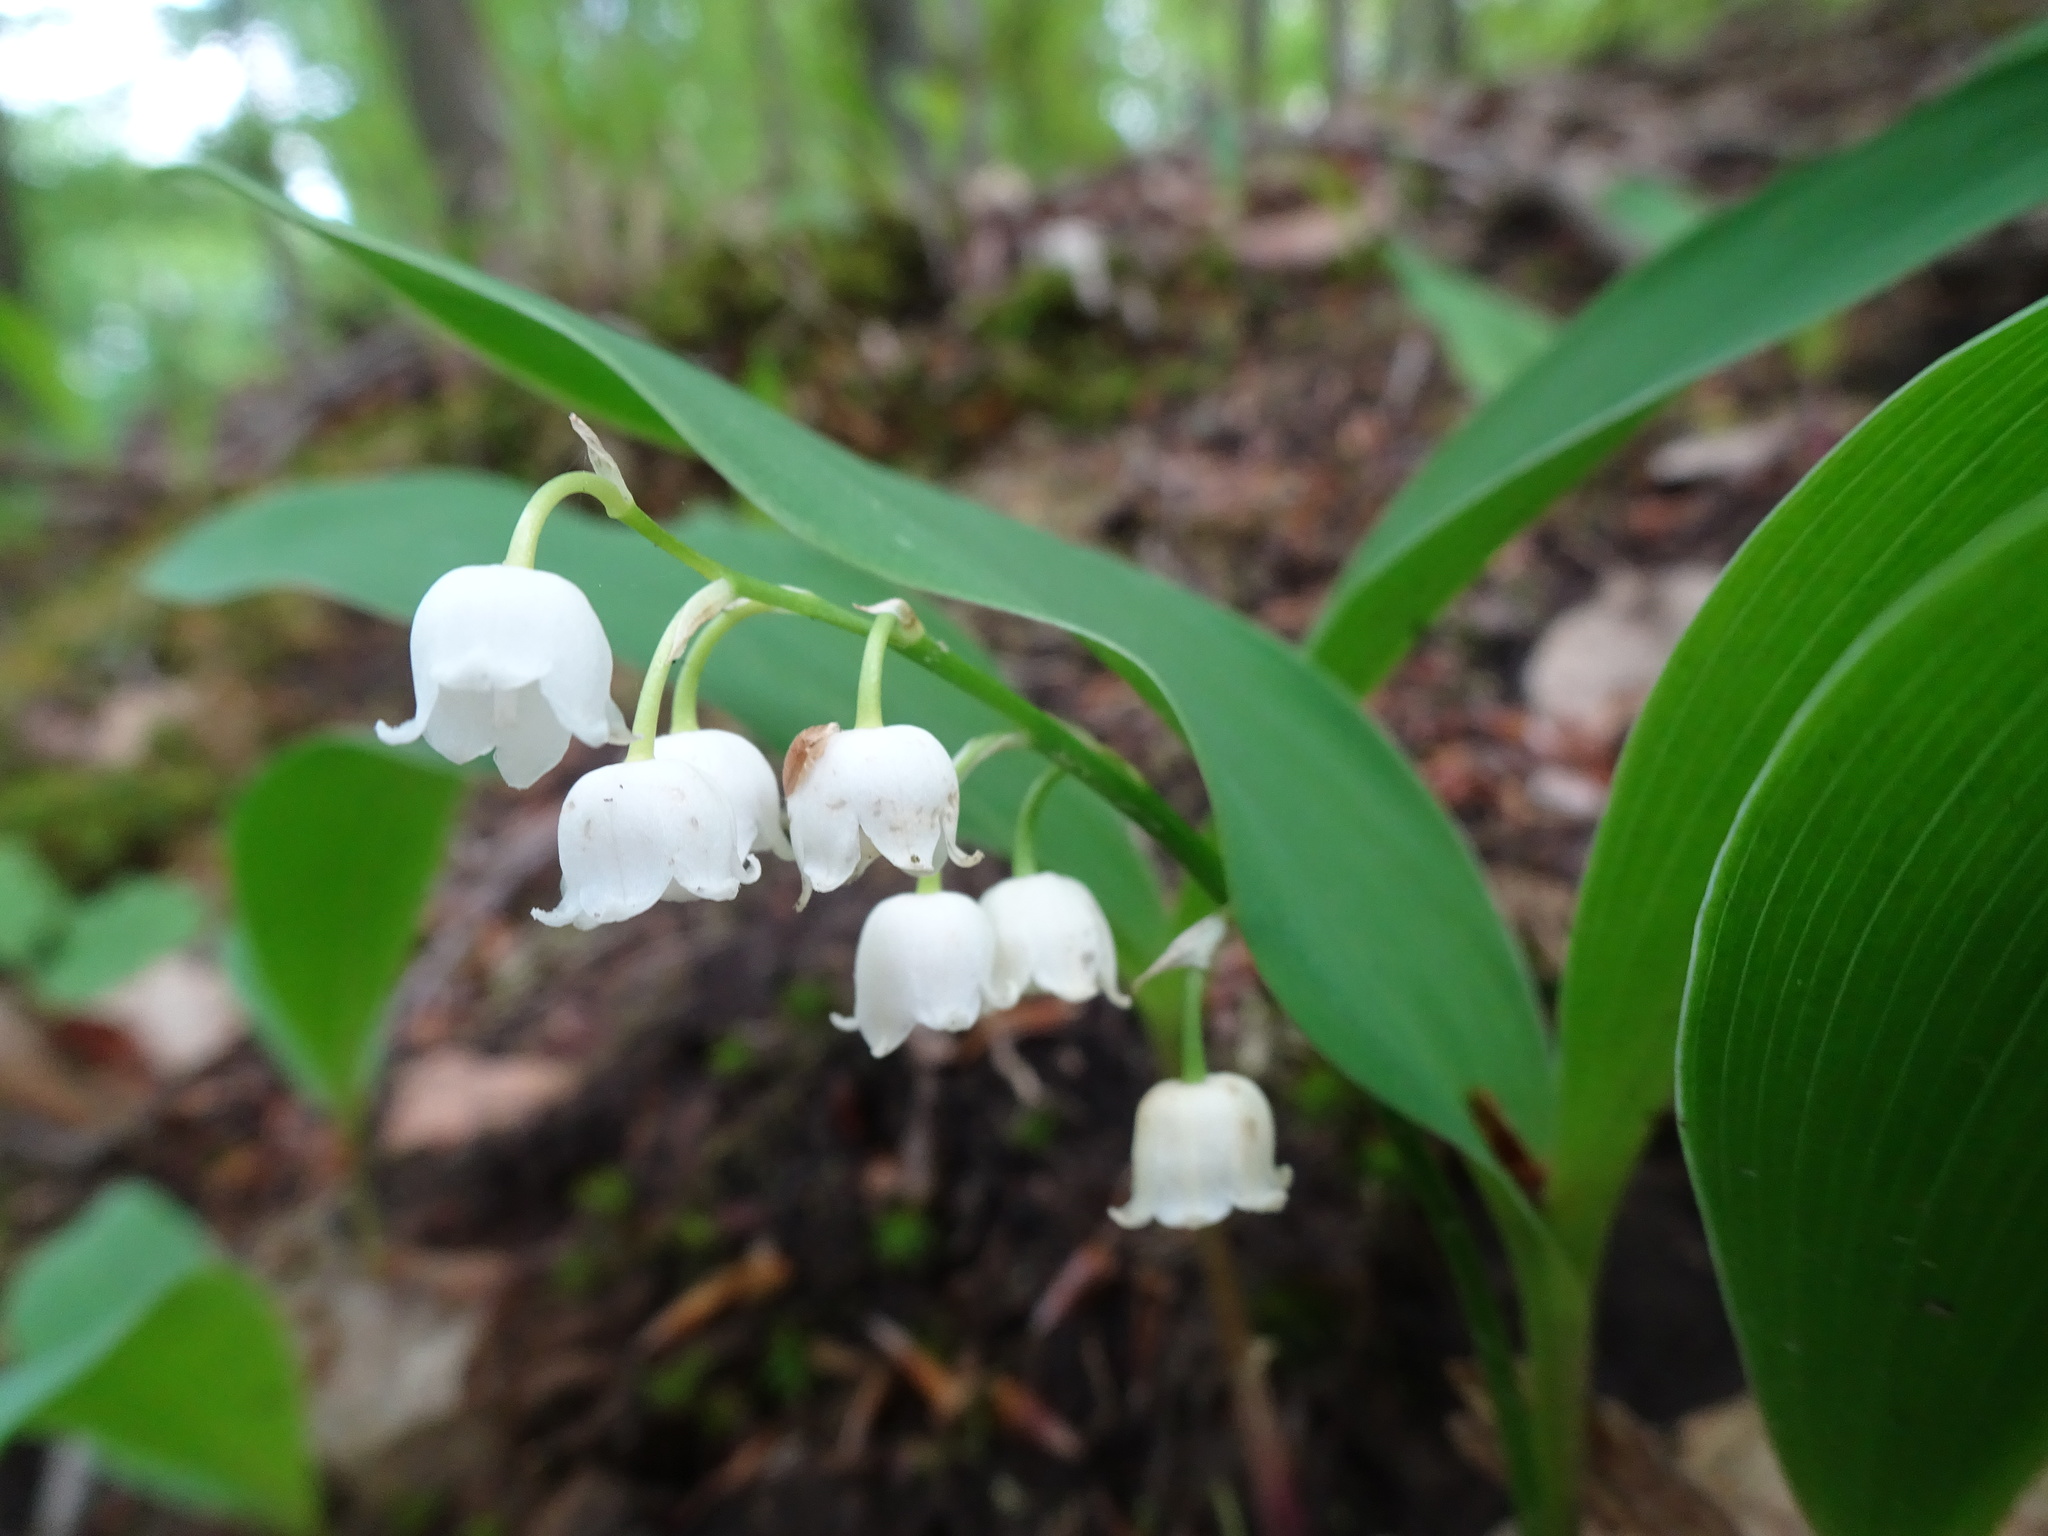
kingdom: Plantae
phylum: Tracheophyta
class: Liliopsida
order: Asparagales
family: Asparagaceae
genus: Convallaria
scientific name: Convallaria majalis
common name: Lily-of-the-valley
